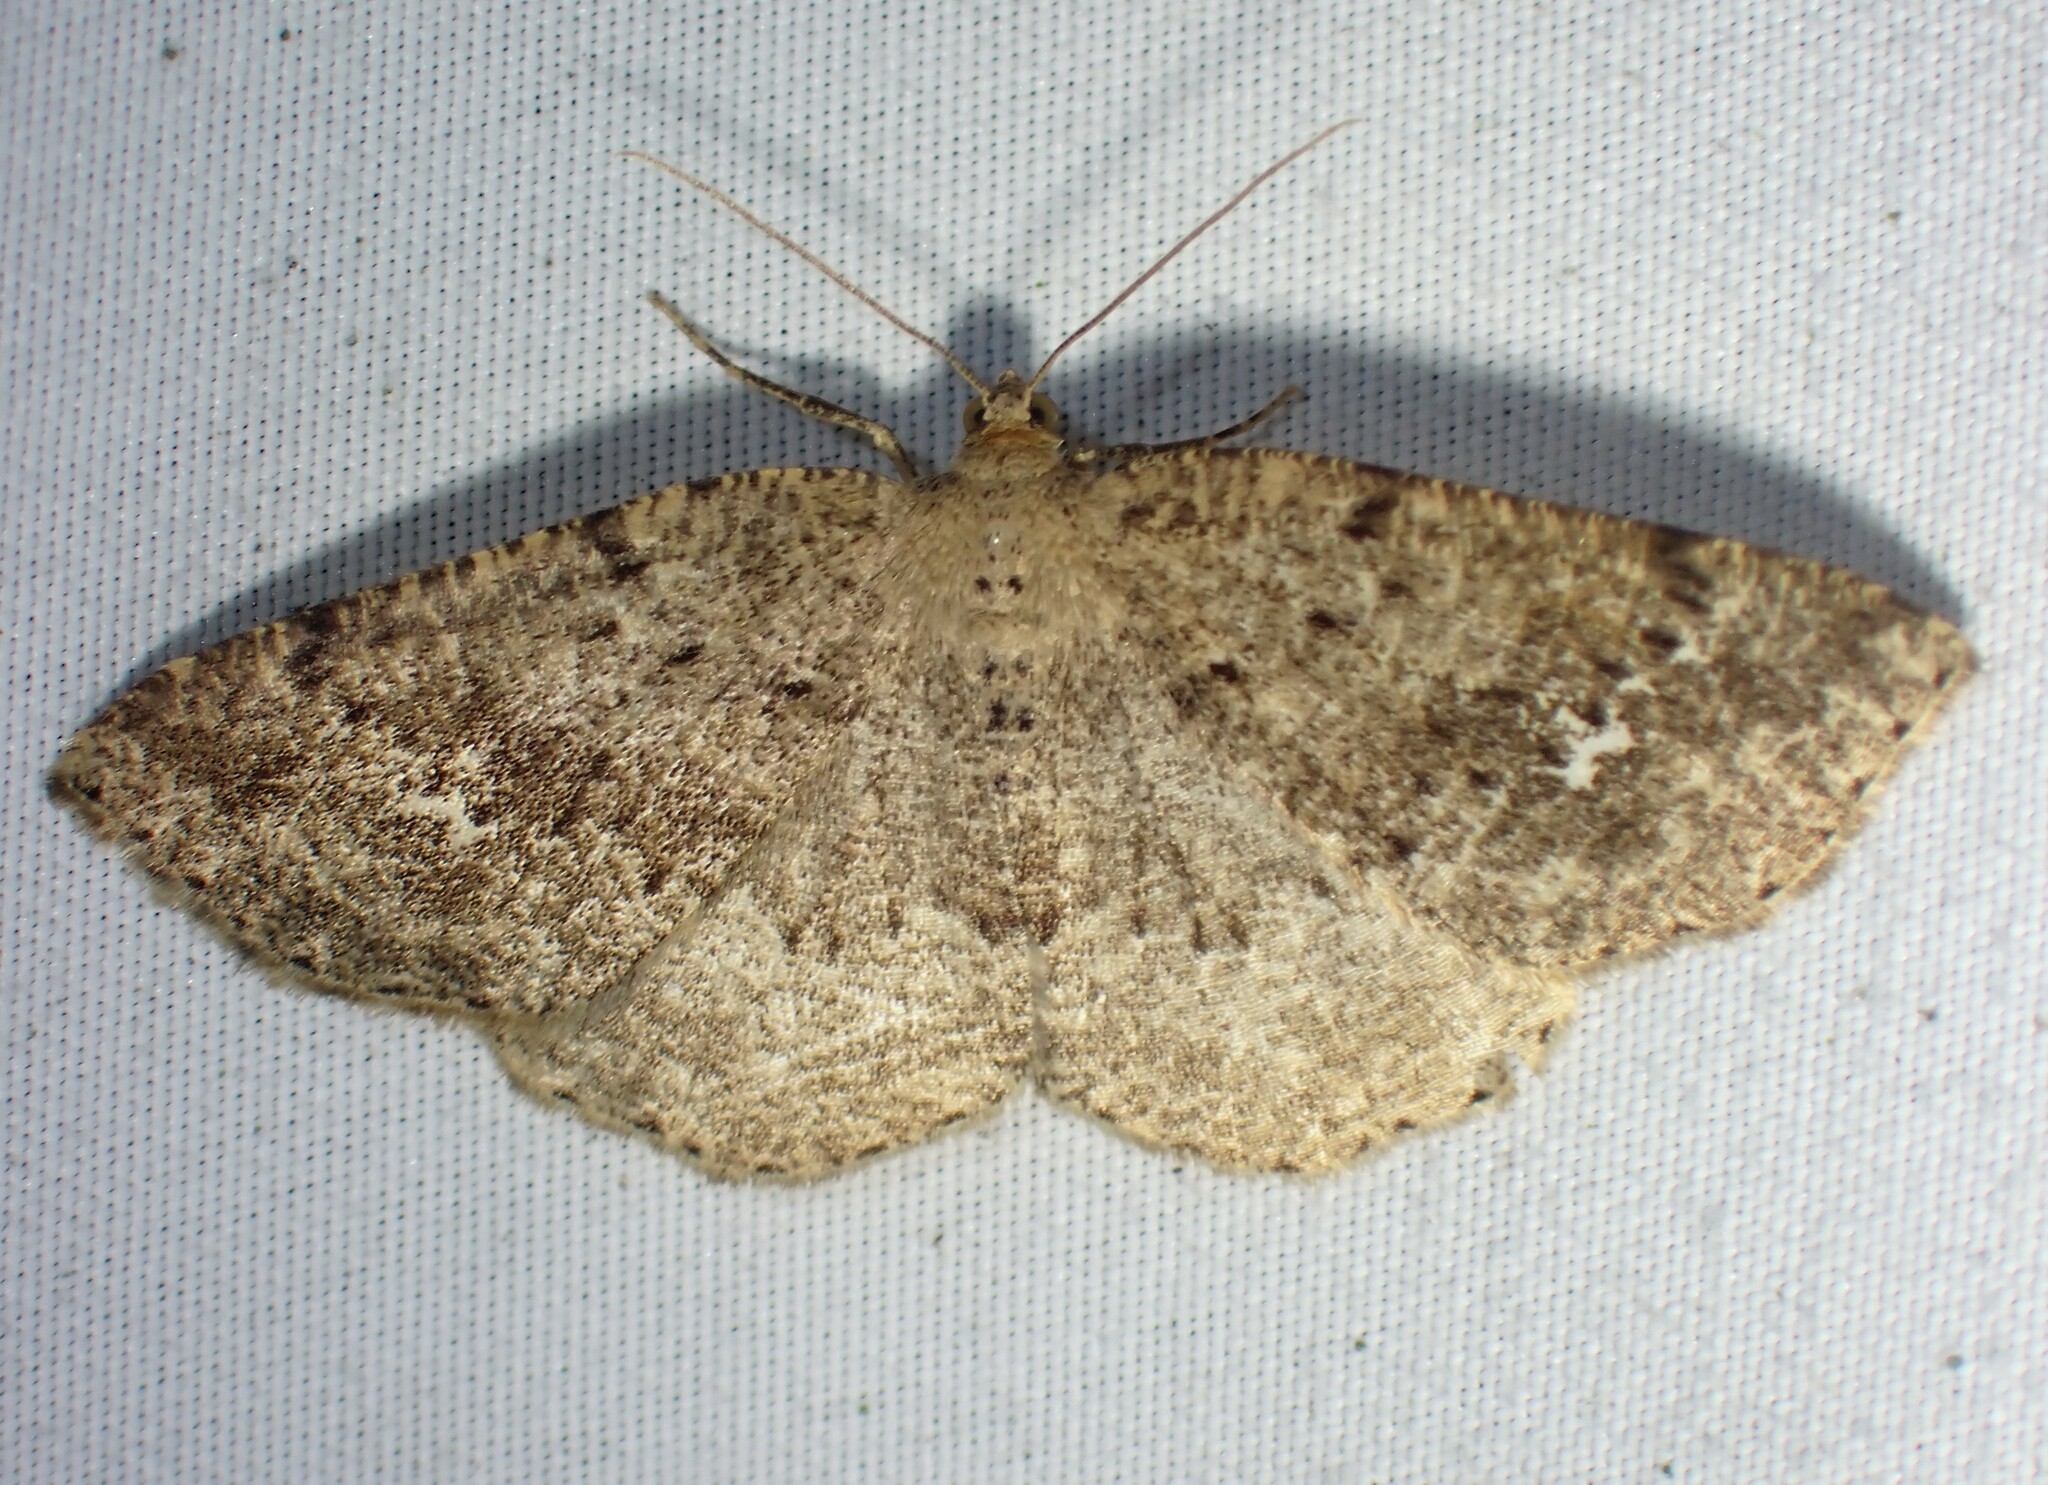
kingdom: Animalia
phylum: Arthropoda
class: Insecta
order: Lepidoptera
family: Geometridae
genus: Homochlodes
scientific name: Homochlodes fritillaria
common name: Pale homochlodes
